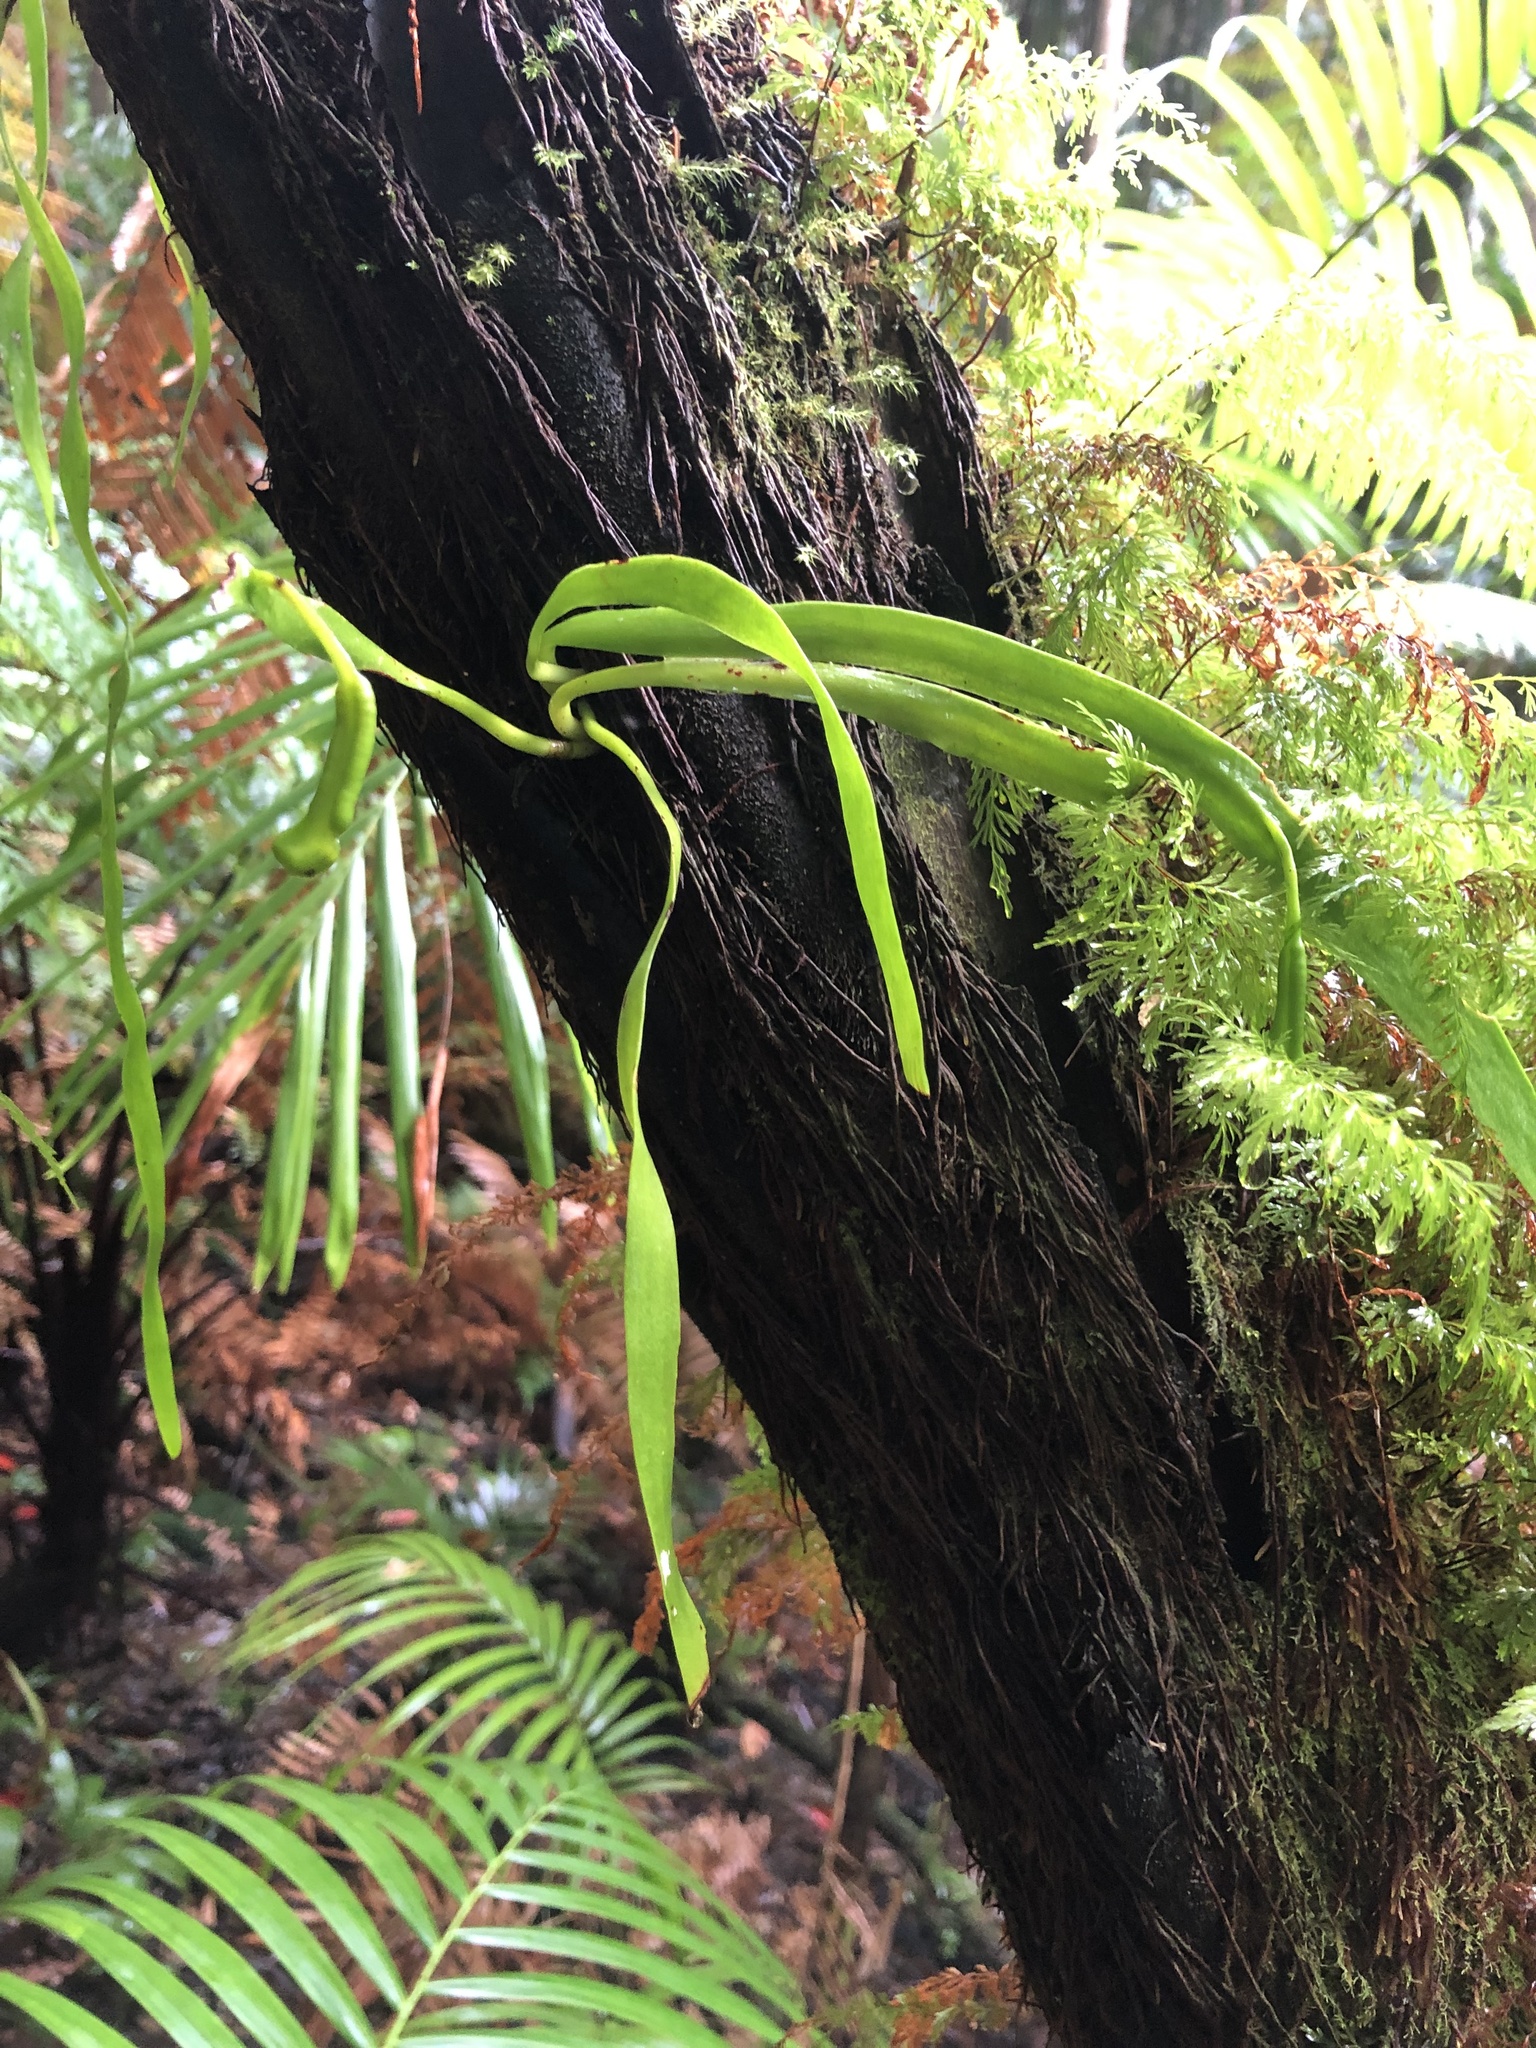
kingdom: Plantae
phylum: Tracheophyta
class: Polypodiopsida
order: Ophioglossales
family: Ophioglossaceae
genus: Ophioderma
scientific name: Ophioderma pendulum
